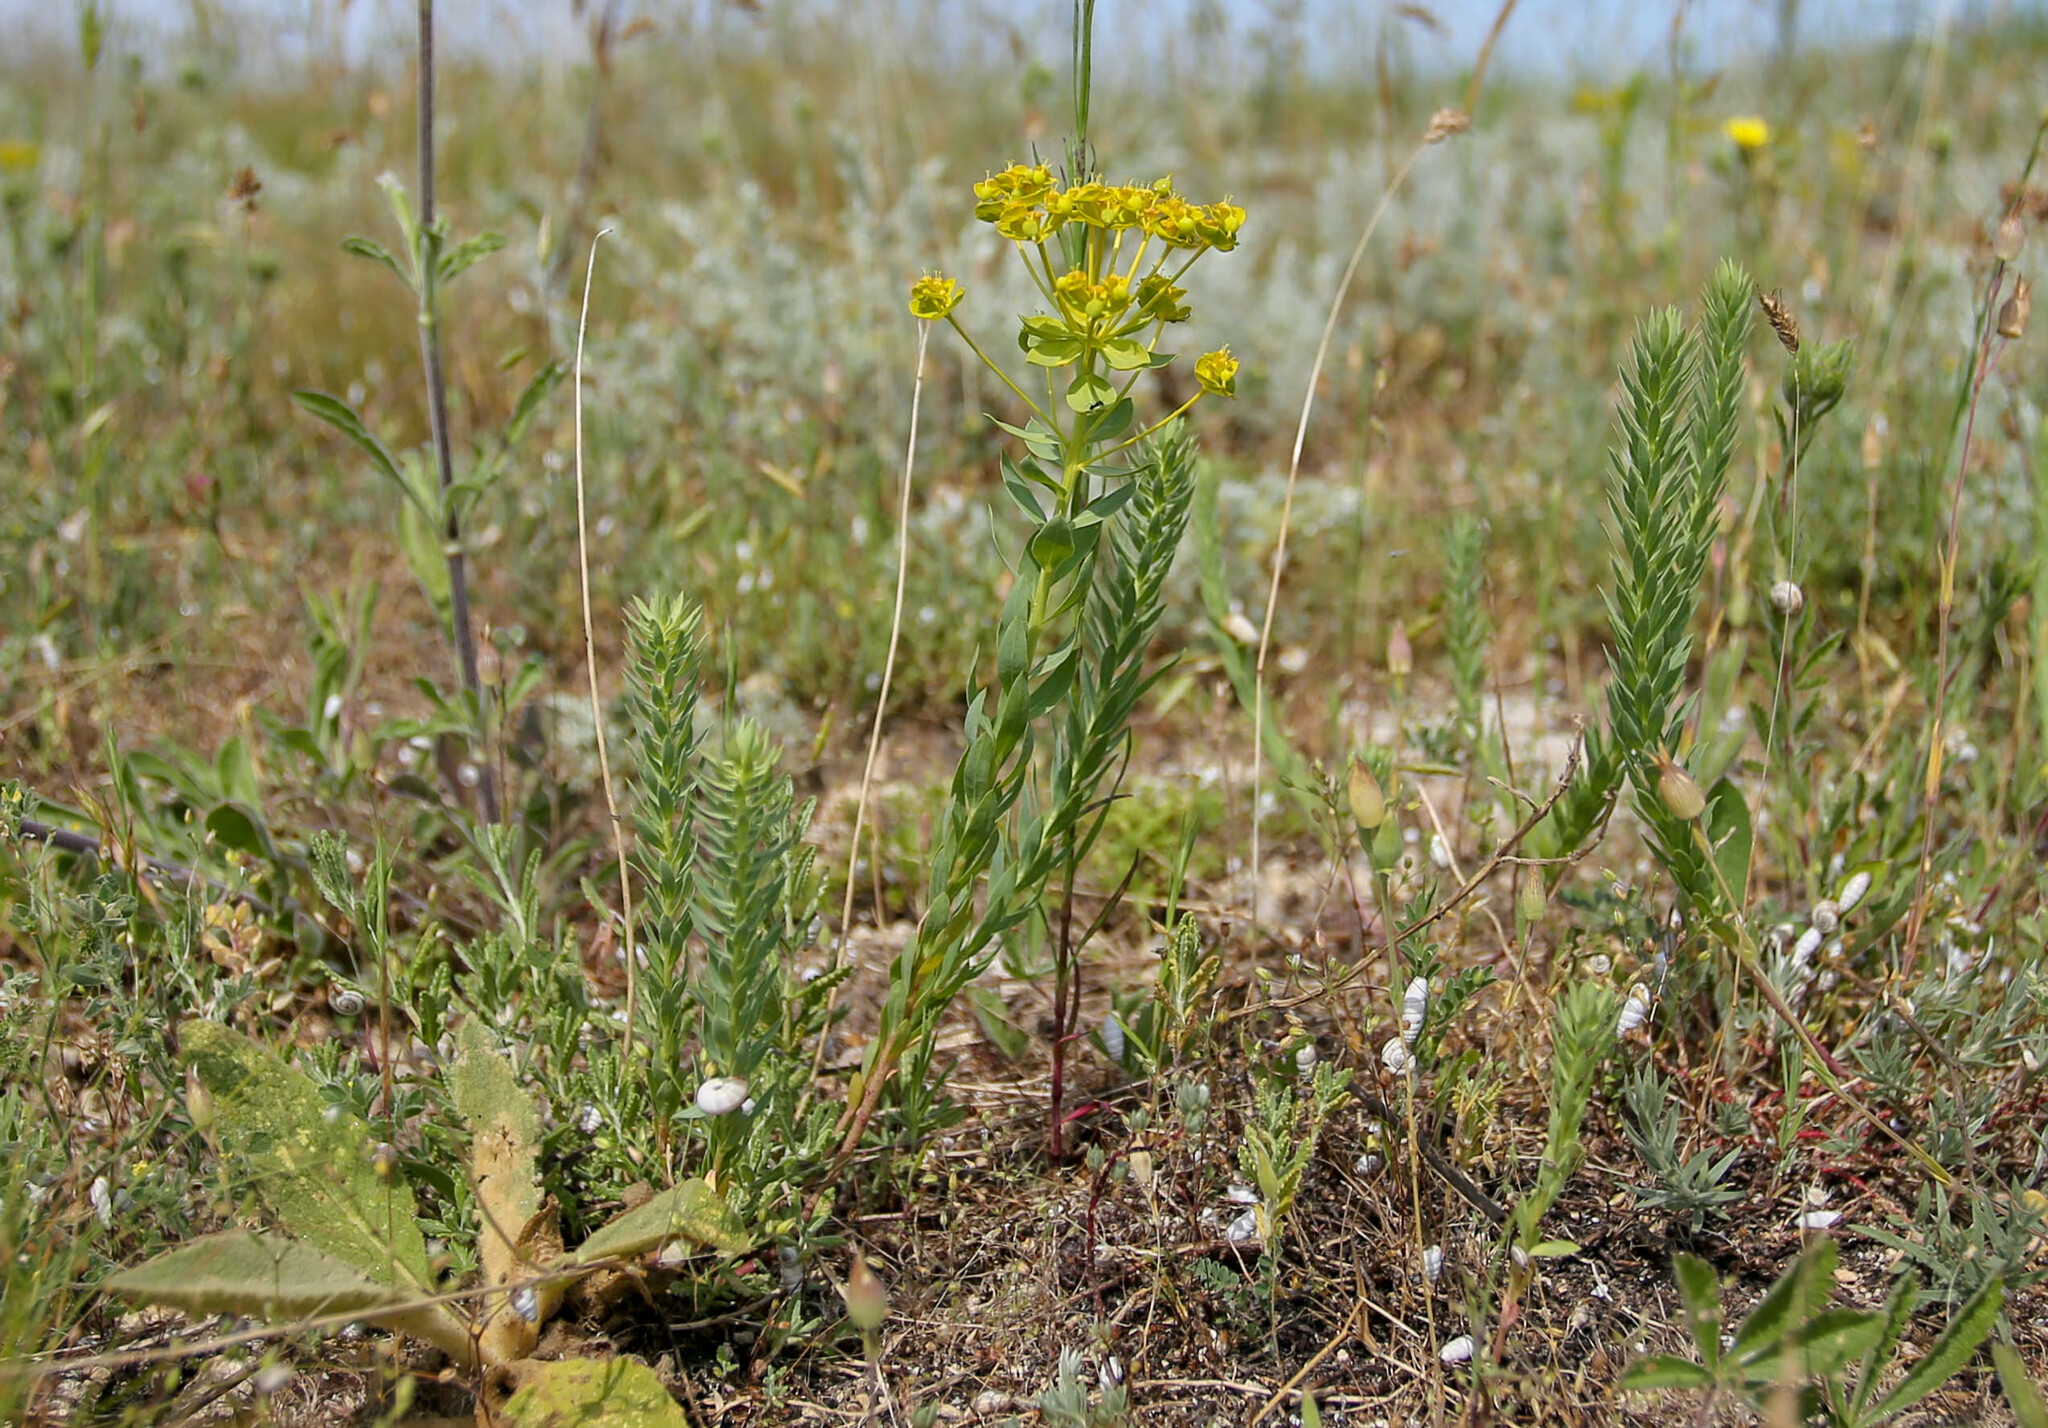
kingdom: Plantae
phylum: Tracheophyta
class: Magnoliopsida
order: Malpighiales
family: Euphorbiaceae
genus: Euphorbia
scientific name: Euphorbia seguieriana
